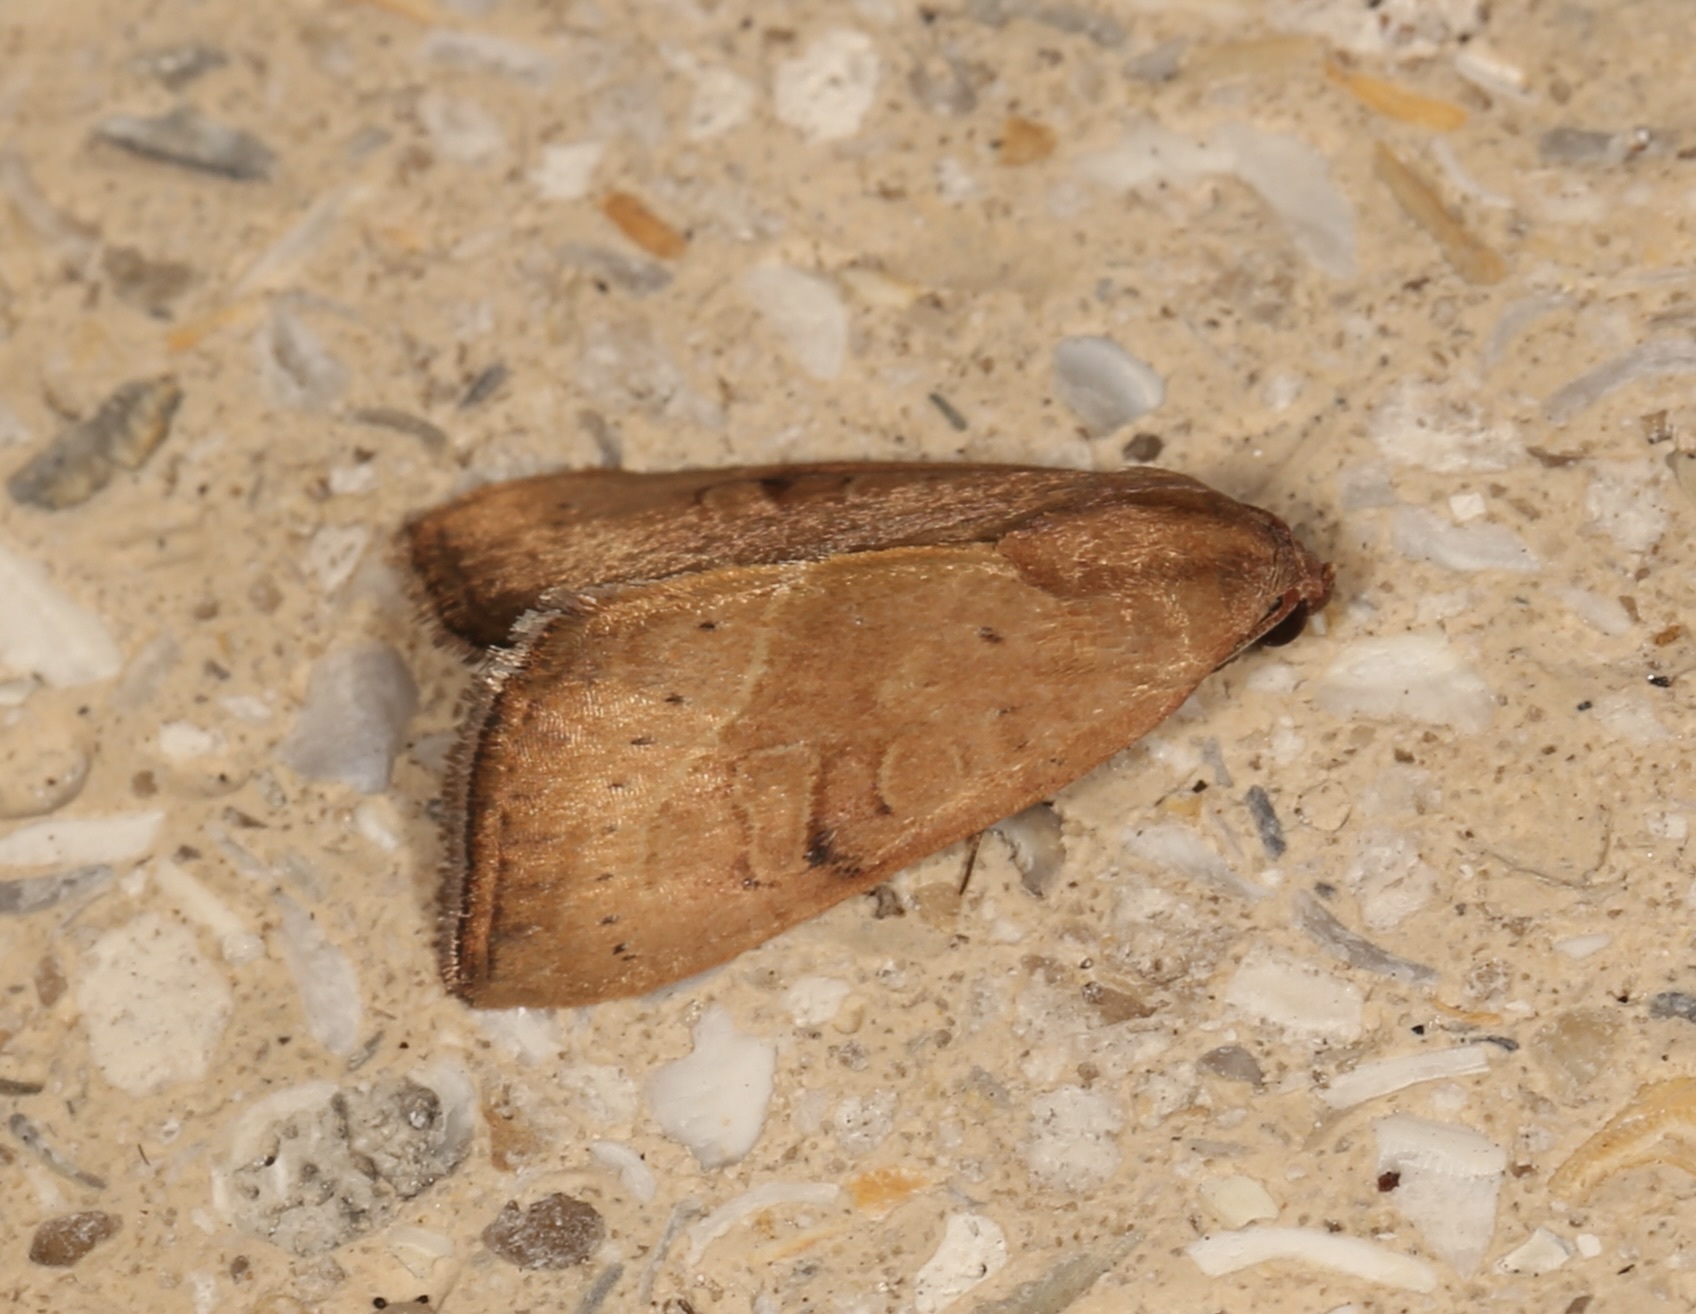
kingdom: Animalia
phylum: Arthropoda
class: Insecta
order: Lepidoptera
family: Noctuidae
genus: Galgula
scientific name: Galgula partita
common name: Wedgeling
